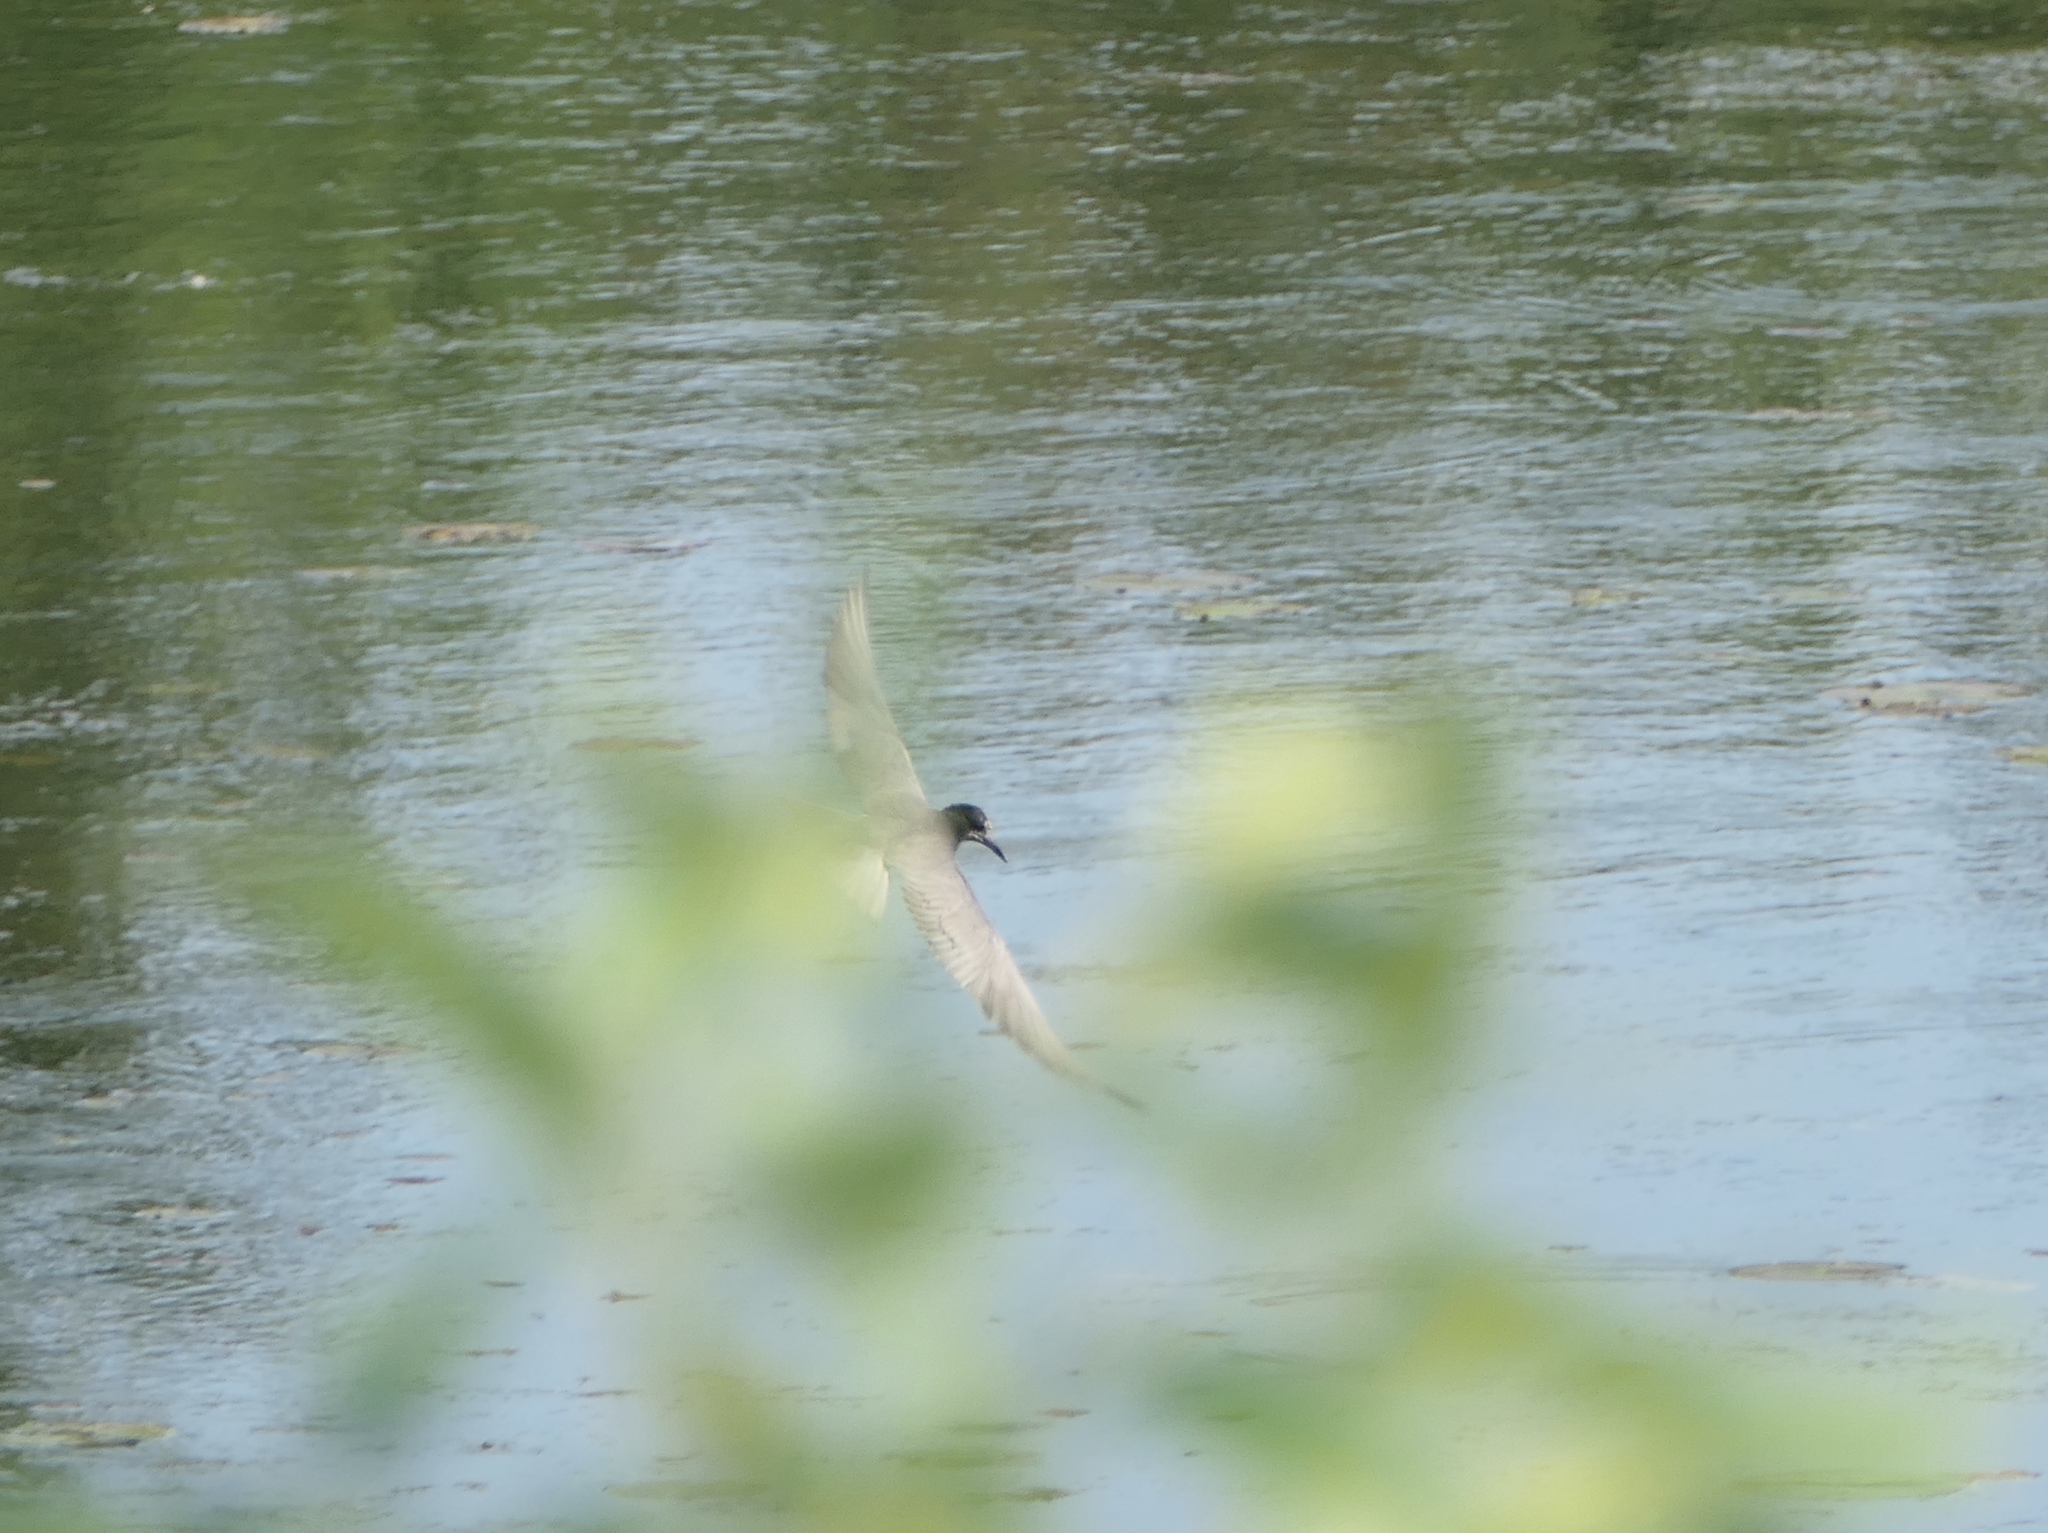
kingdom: Animalia
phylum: Chordata
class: Aves
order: Charadriiformes
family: Laridae
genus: Chlidonias
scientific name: Chlidonias niger
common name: Black tern
